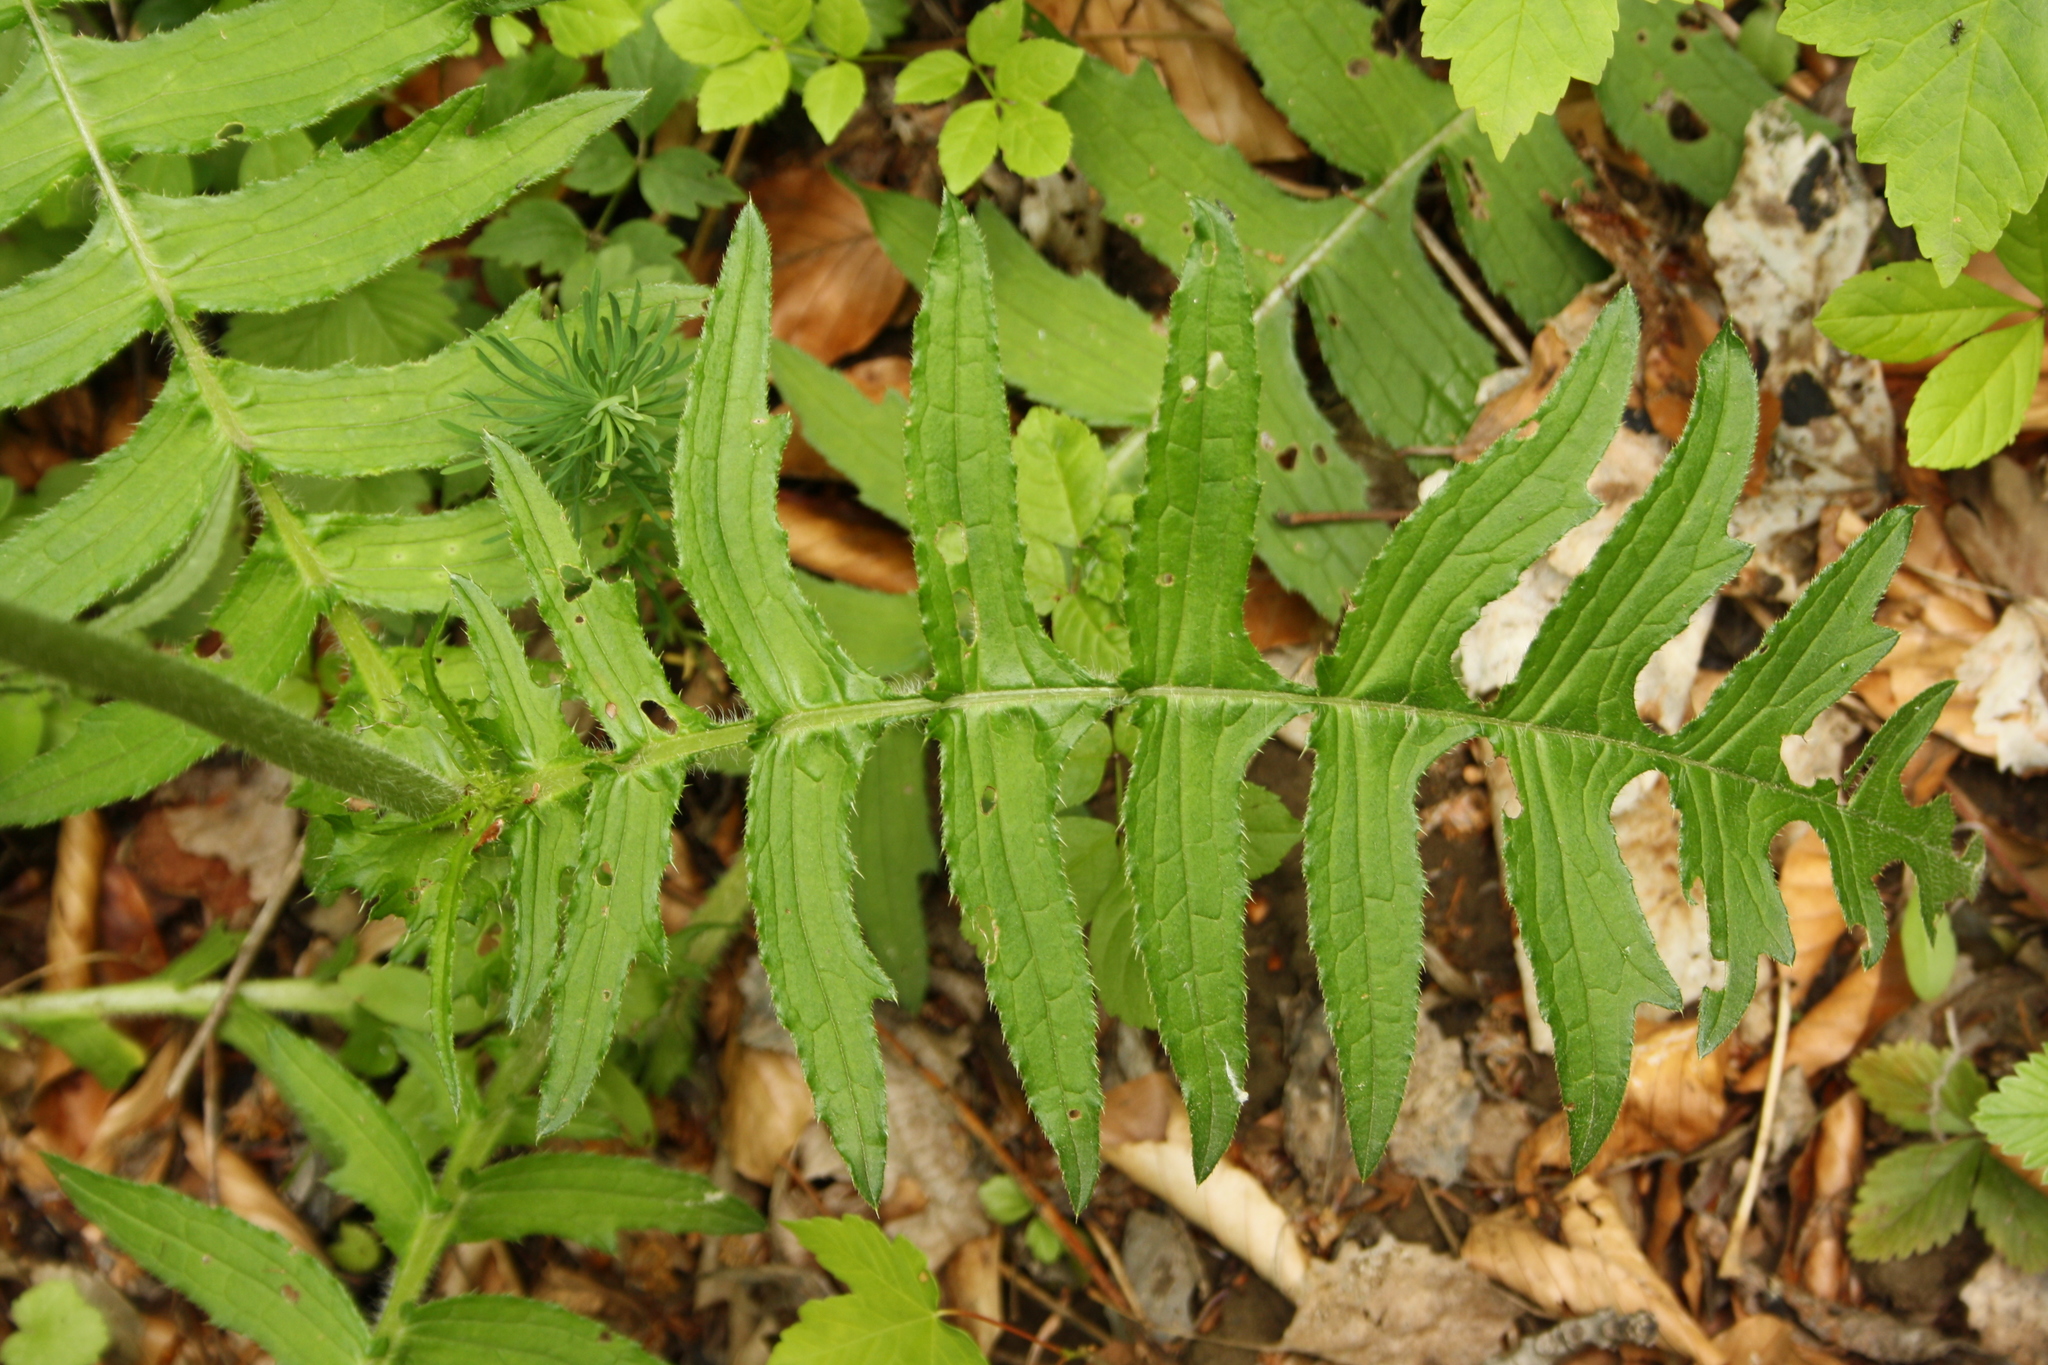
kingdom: Plantae
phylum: Tracheophyta
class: Magnoliopsida
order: Asterales
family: Asteraceae
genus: Cirsium
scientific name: Cirsium erisithales
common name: Yellow thistle
